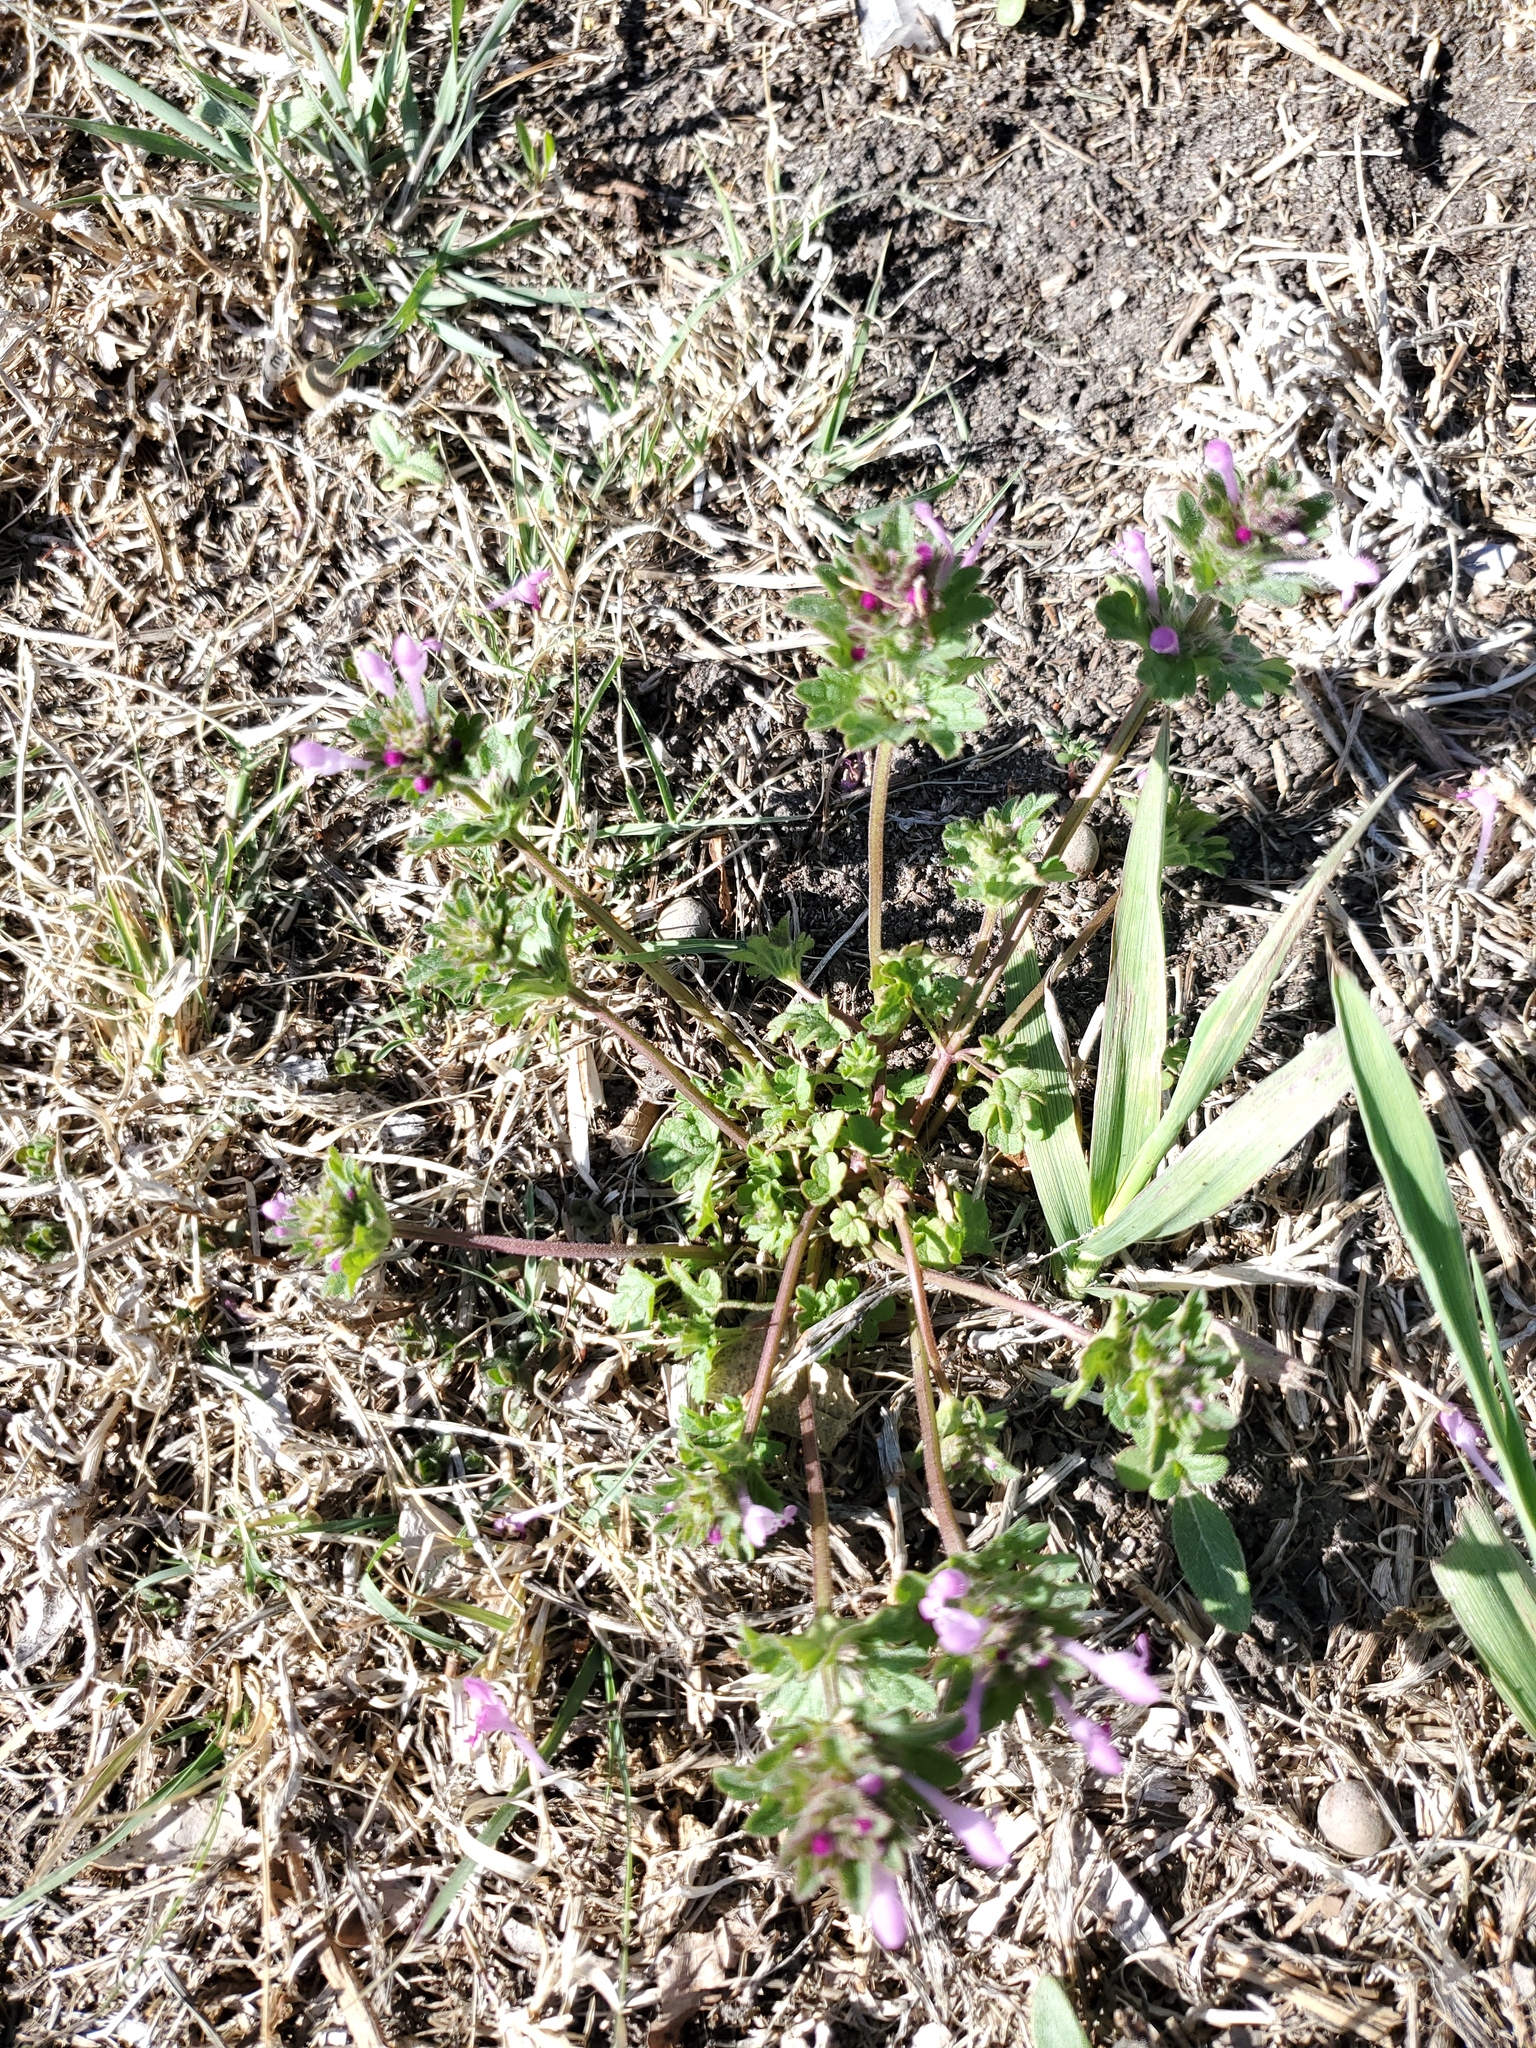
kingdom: Plantae
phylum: Tracheophyta
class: Magnoliopsida
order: Lamiales
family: Lamiaceae
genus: Lamium
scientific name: Lamium amplexicaule
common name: Henbit dead-nettle
